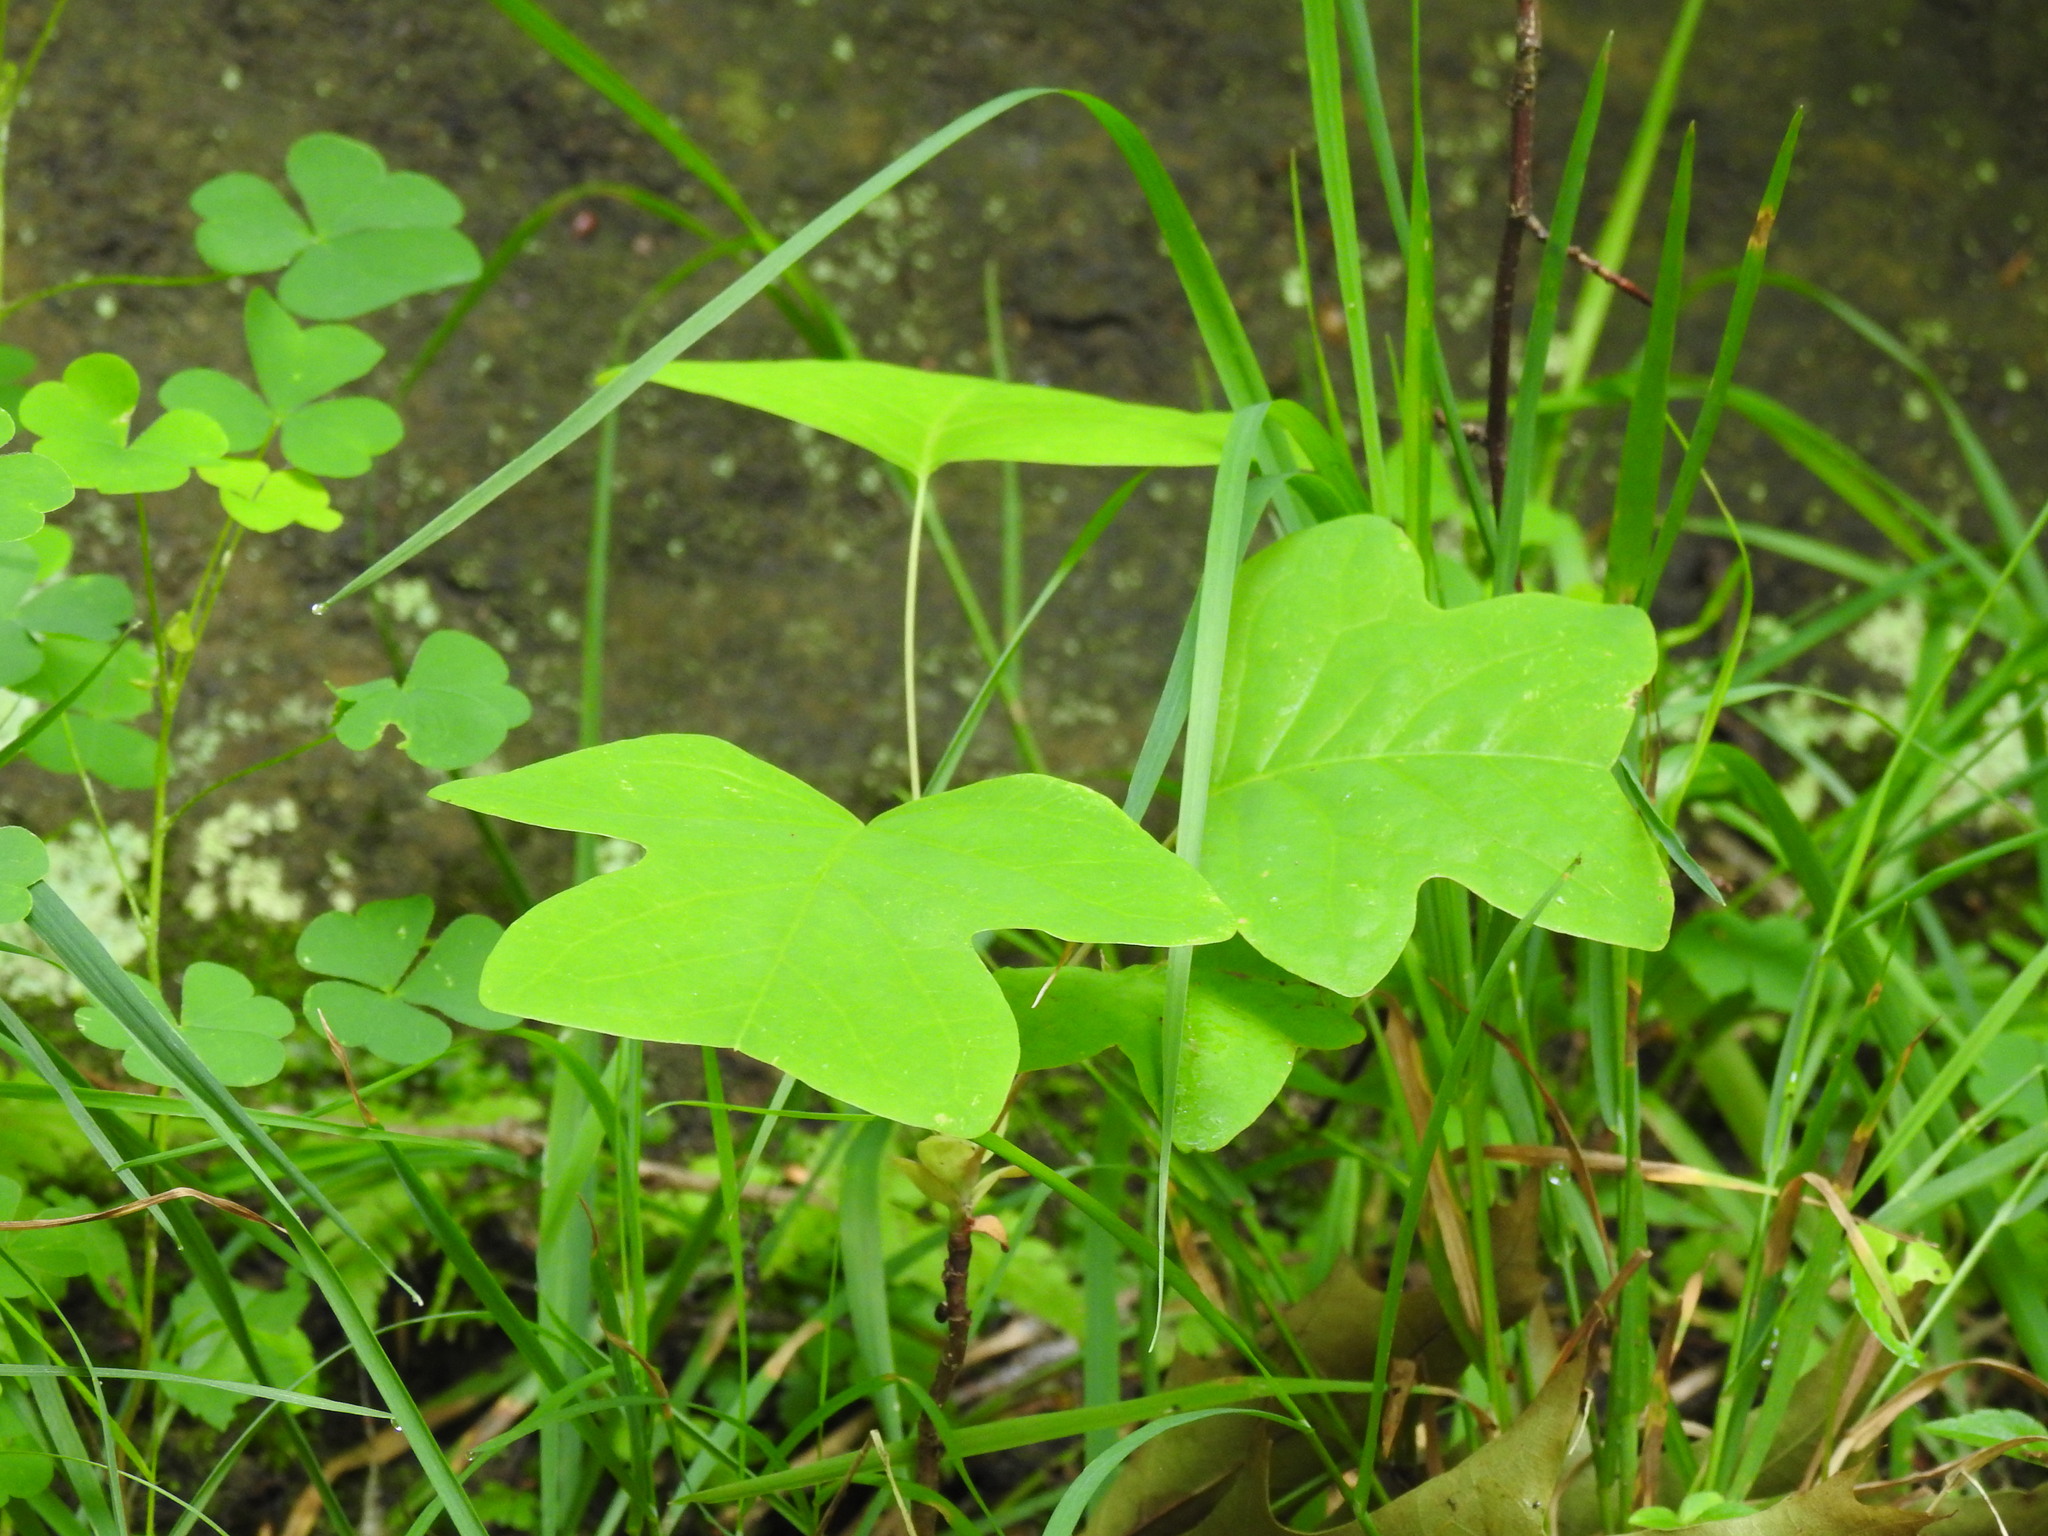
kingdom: Plantae
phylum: Tracheophyta
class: Magnoliopsida
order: Magnoliales
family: Magnoliaceae
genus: Liriodendron
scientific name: Liriodendron tulipifera
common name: Tulip tree
